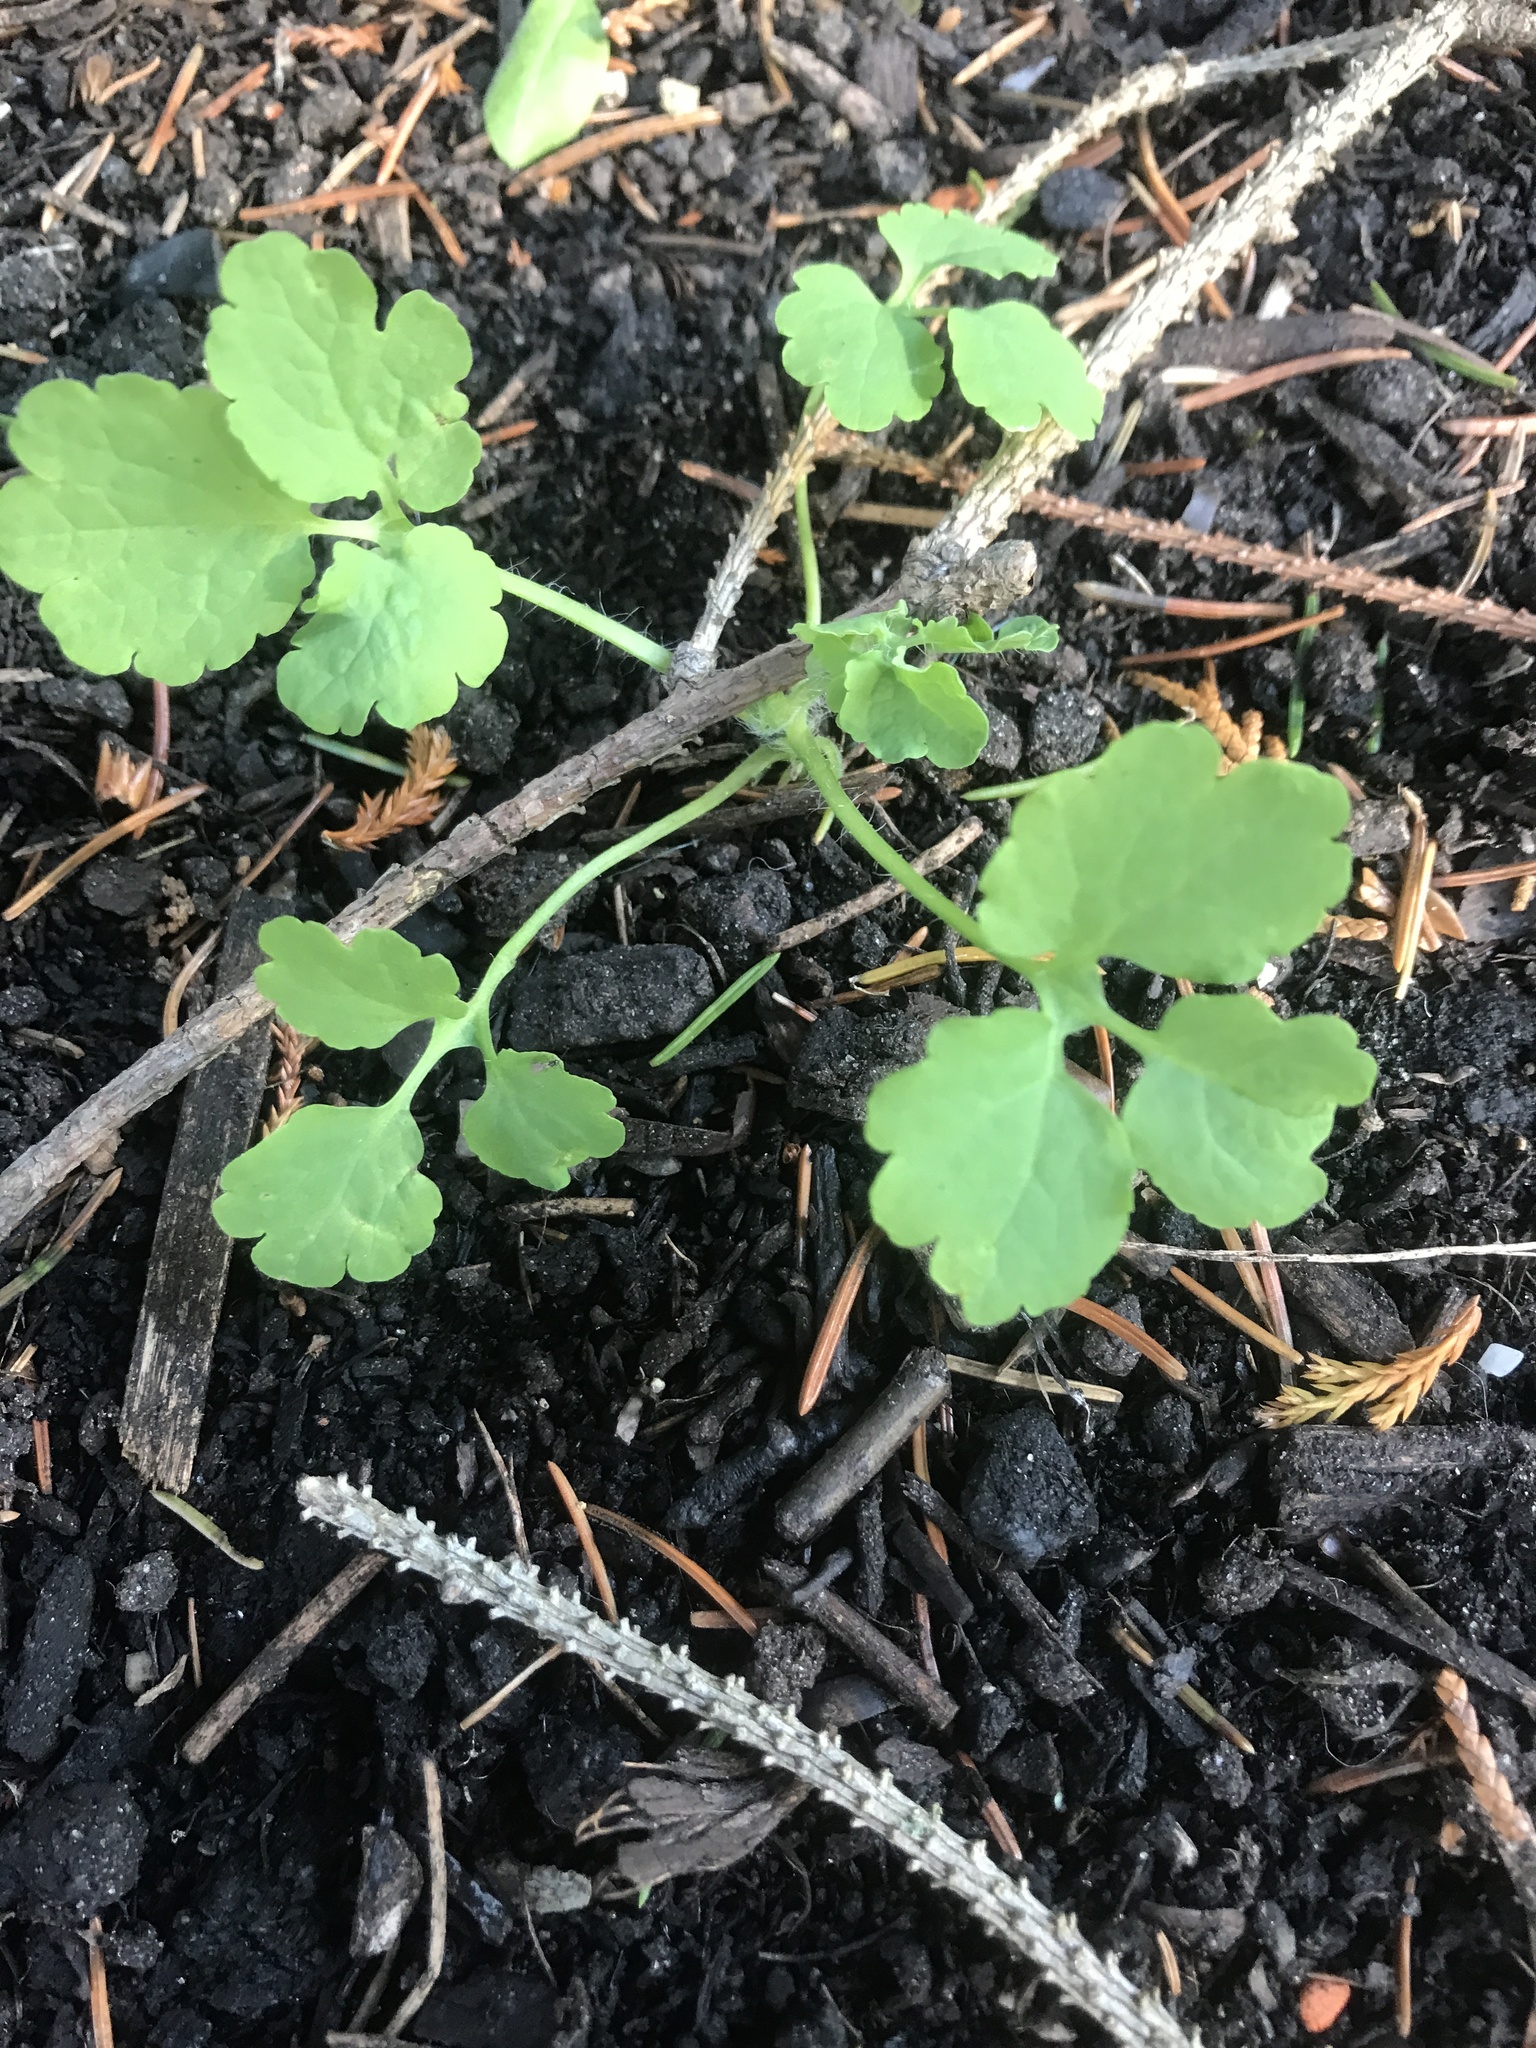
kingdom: Plantae
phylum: Tracheophyta
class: Magnoliopsida
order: Ranunculales
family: Papaveraceae
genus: Chelidonium
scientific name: Chelidonium majus
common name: Greater celandine
